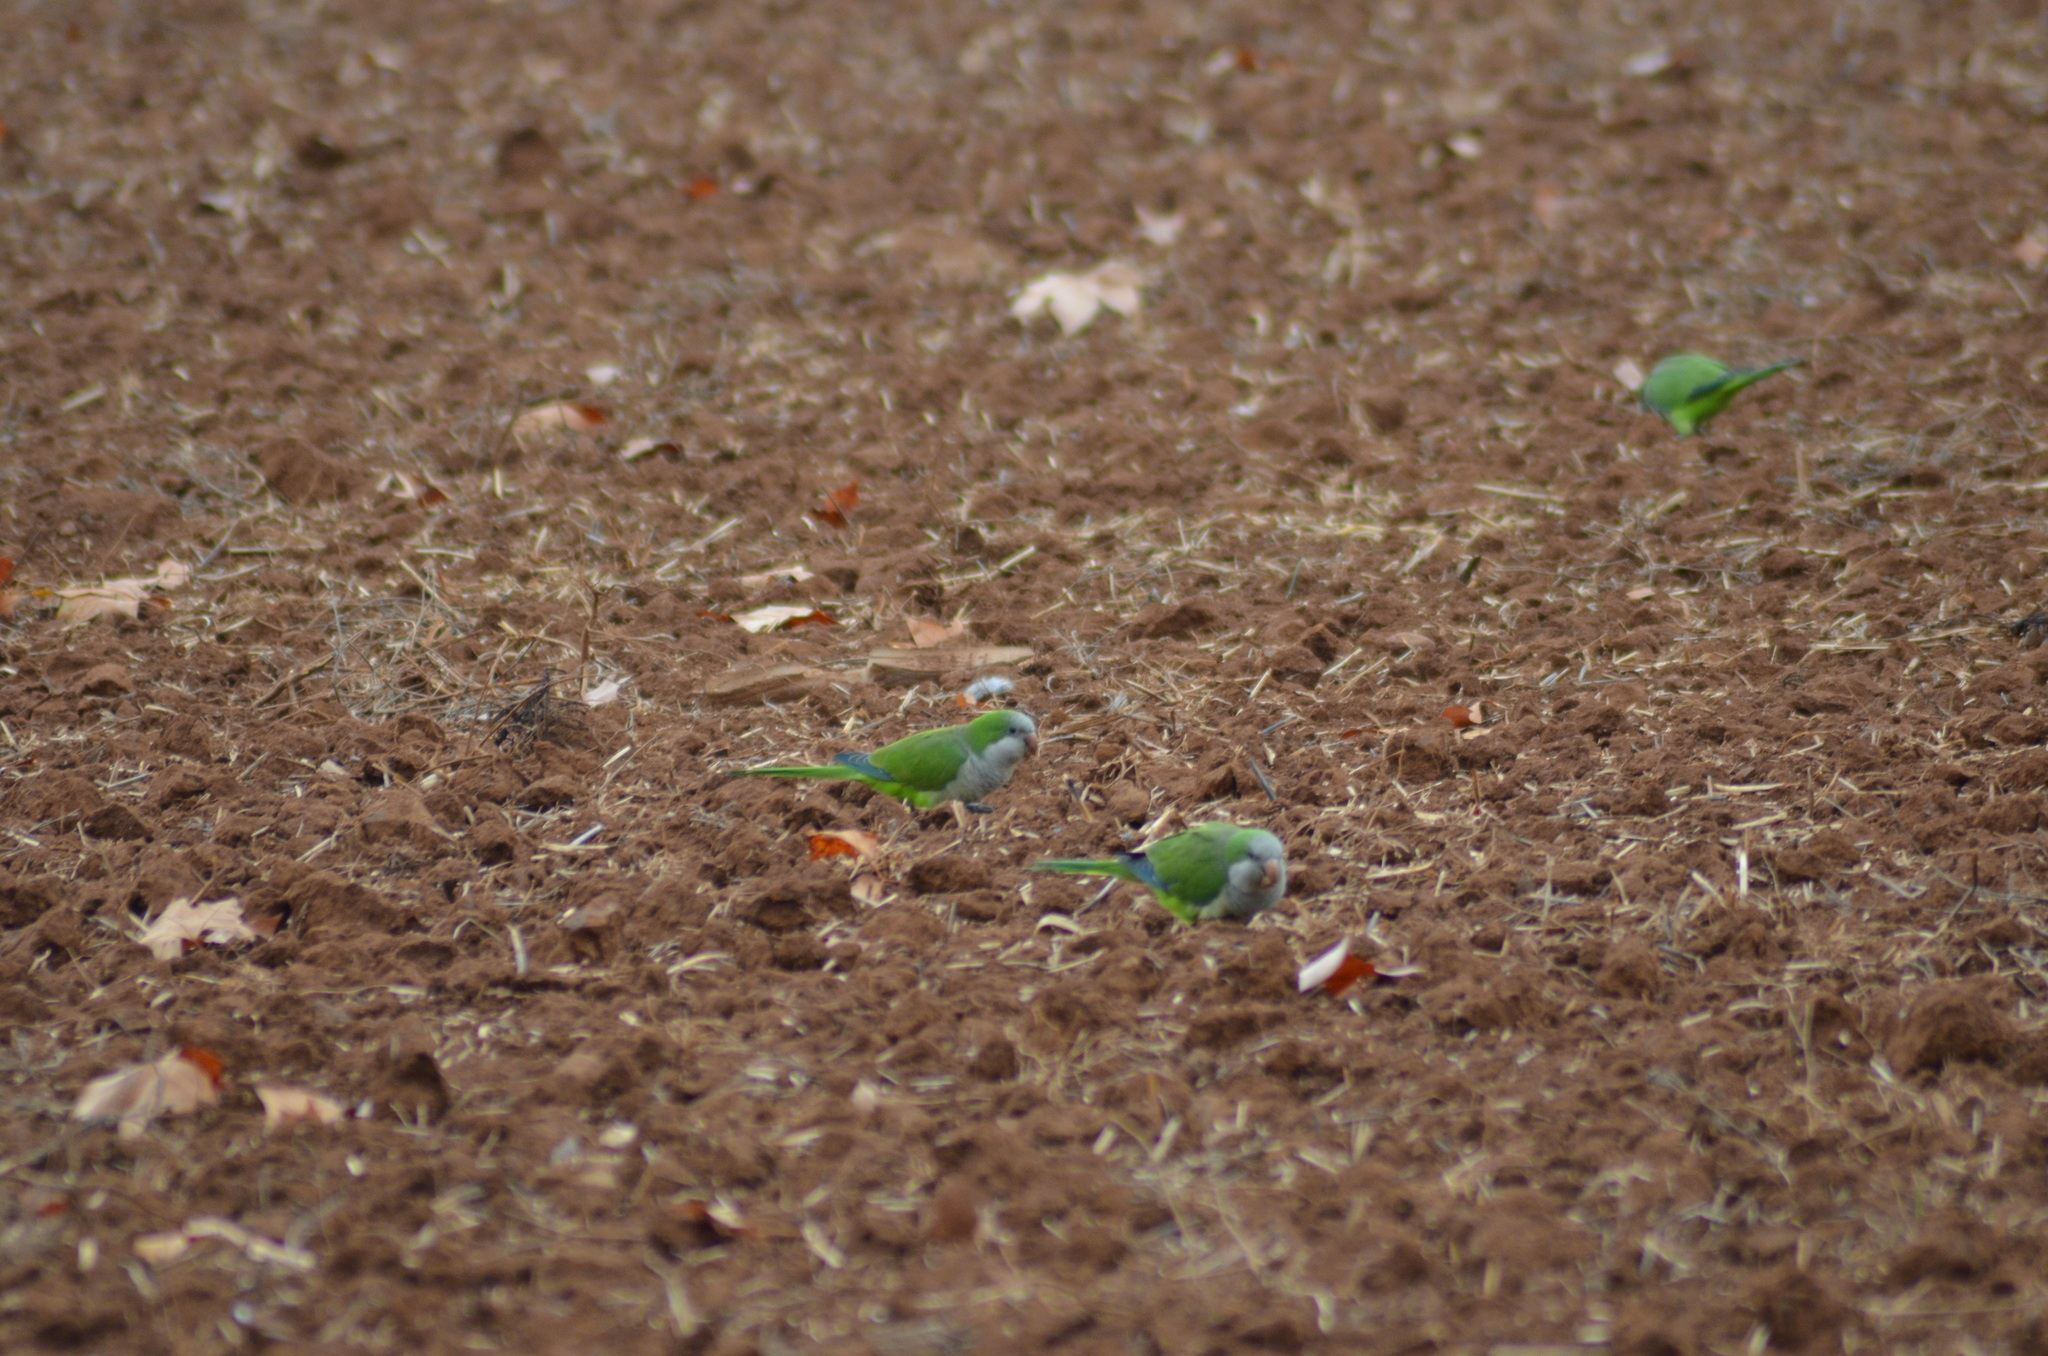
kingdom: Animalia
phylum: Chordata
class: Aves
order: Psittaciformes
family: Psittacidae
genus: Myiopsitta
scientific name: Myiopsitta monachus
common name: Monk parakeet
